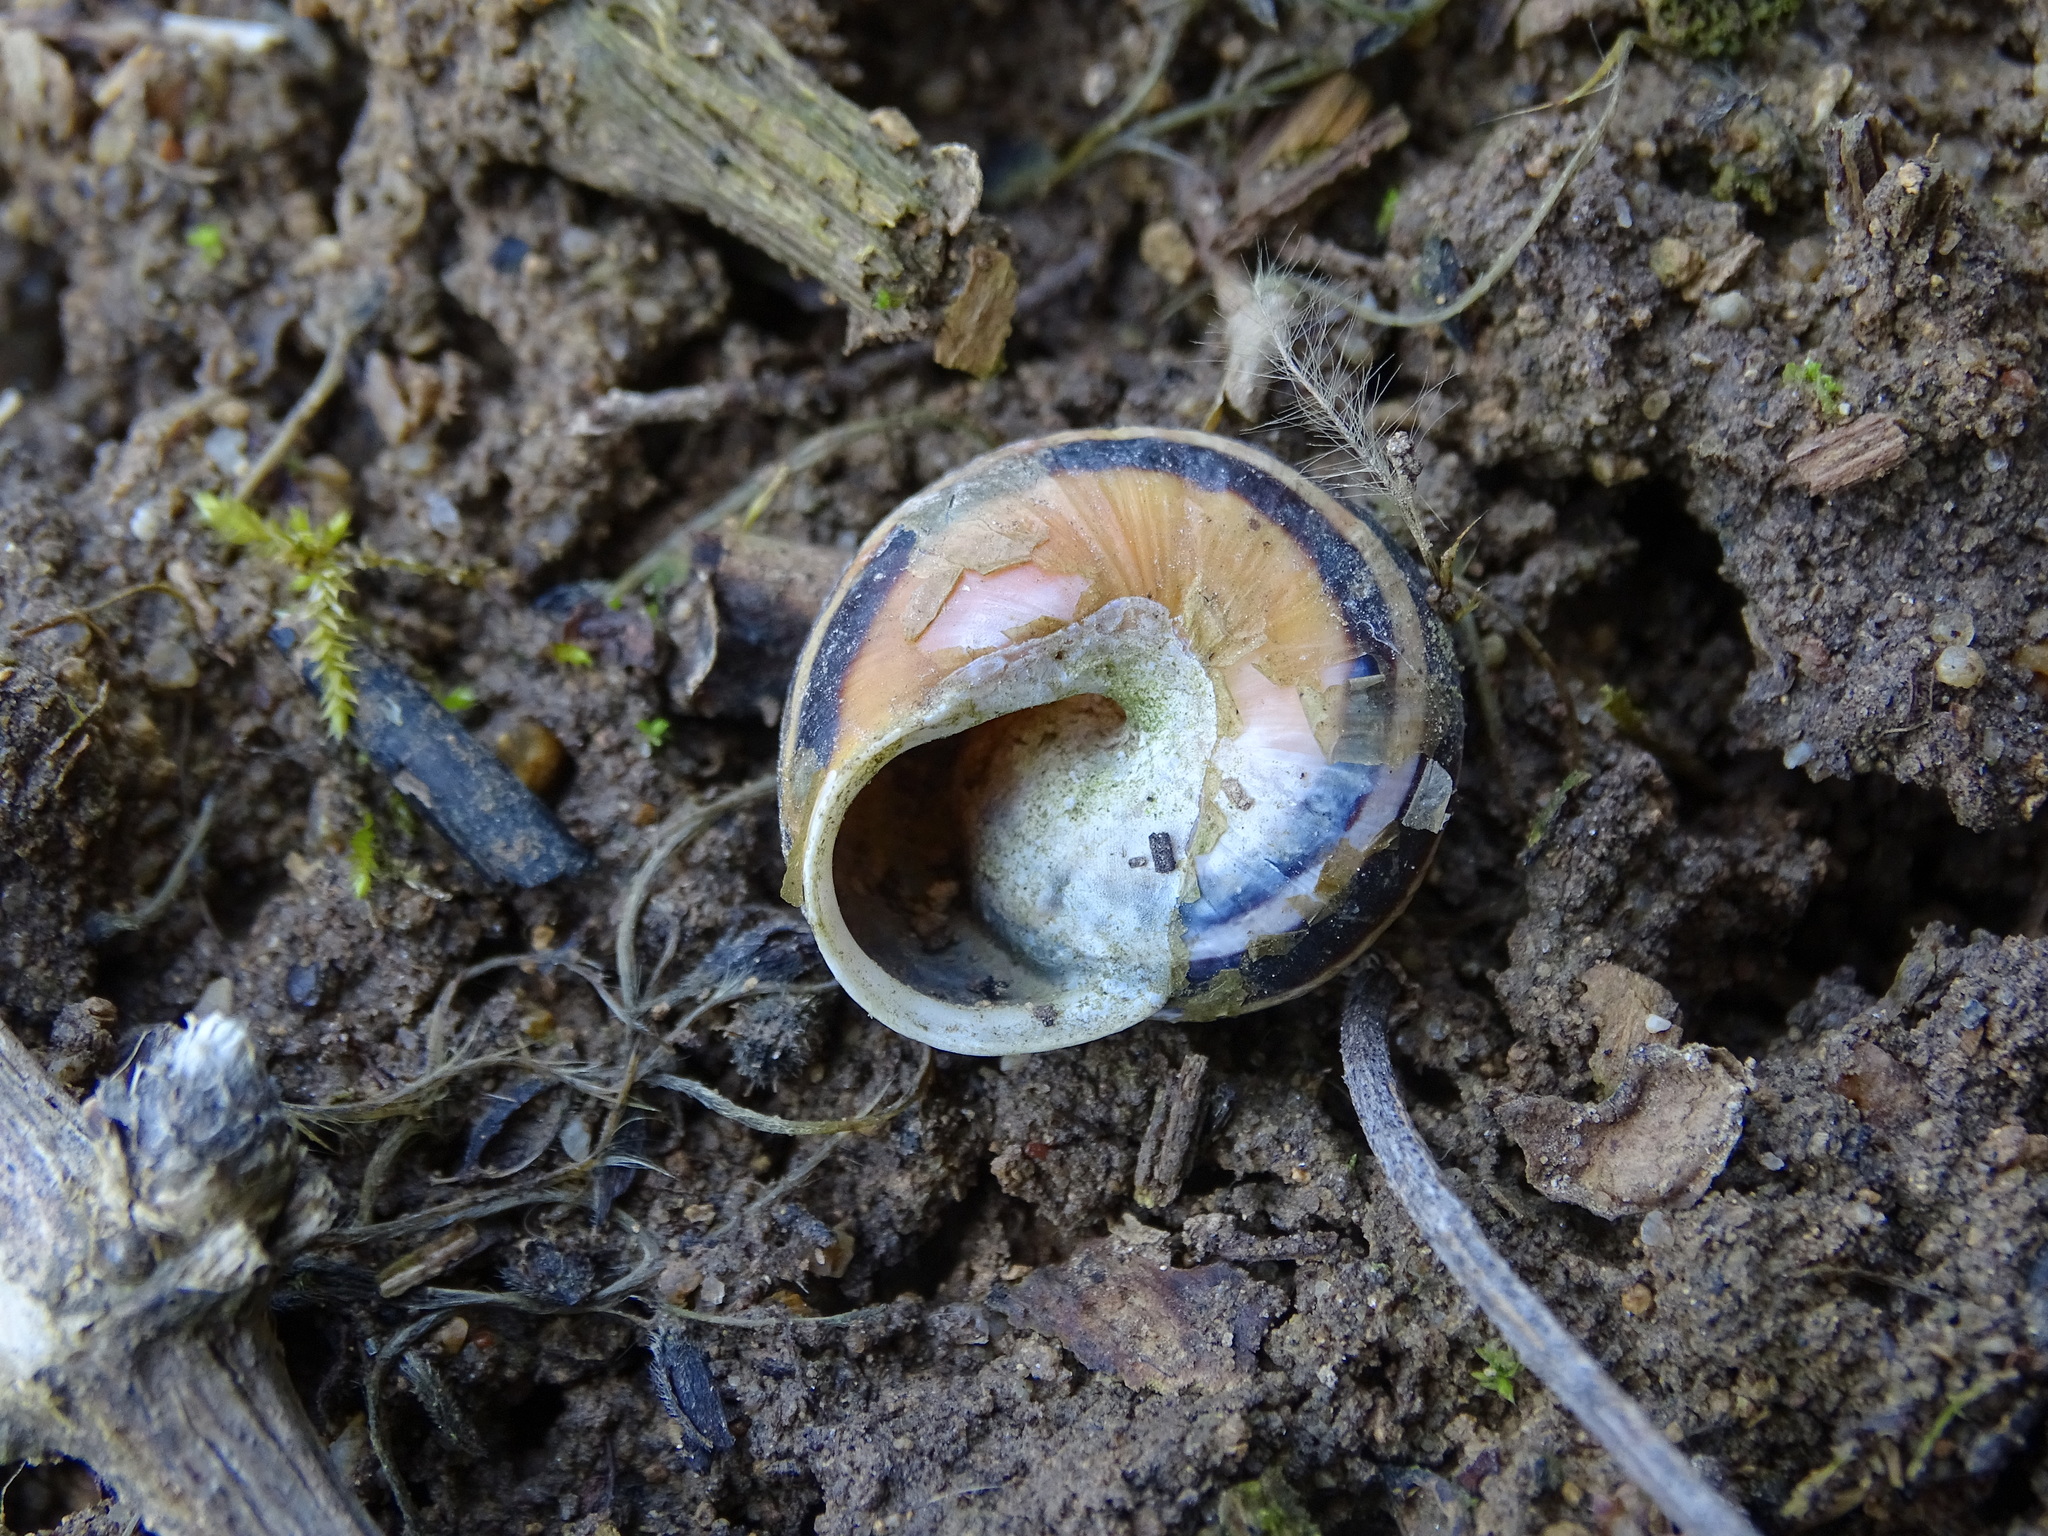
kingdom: Animalia
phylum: Mollusca
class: Gastropoda
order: Stylommatophora
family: Helicidae
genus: Cepaea
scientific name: Cepaea hortensis
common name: White-lip gardensnail
